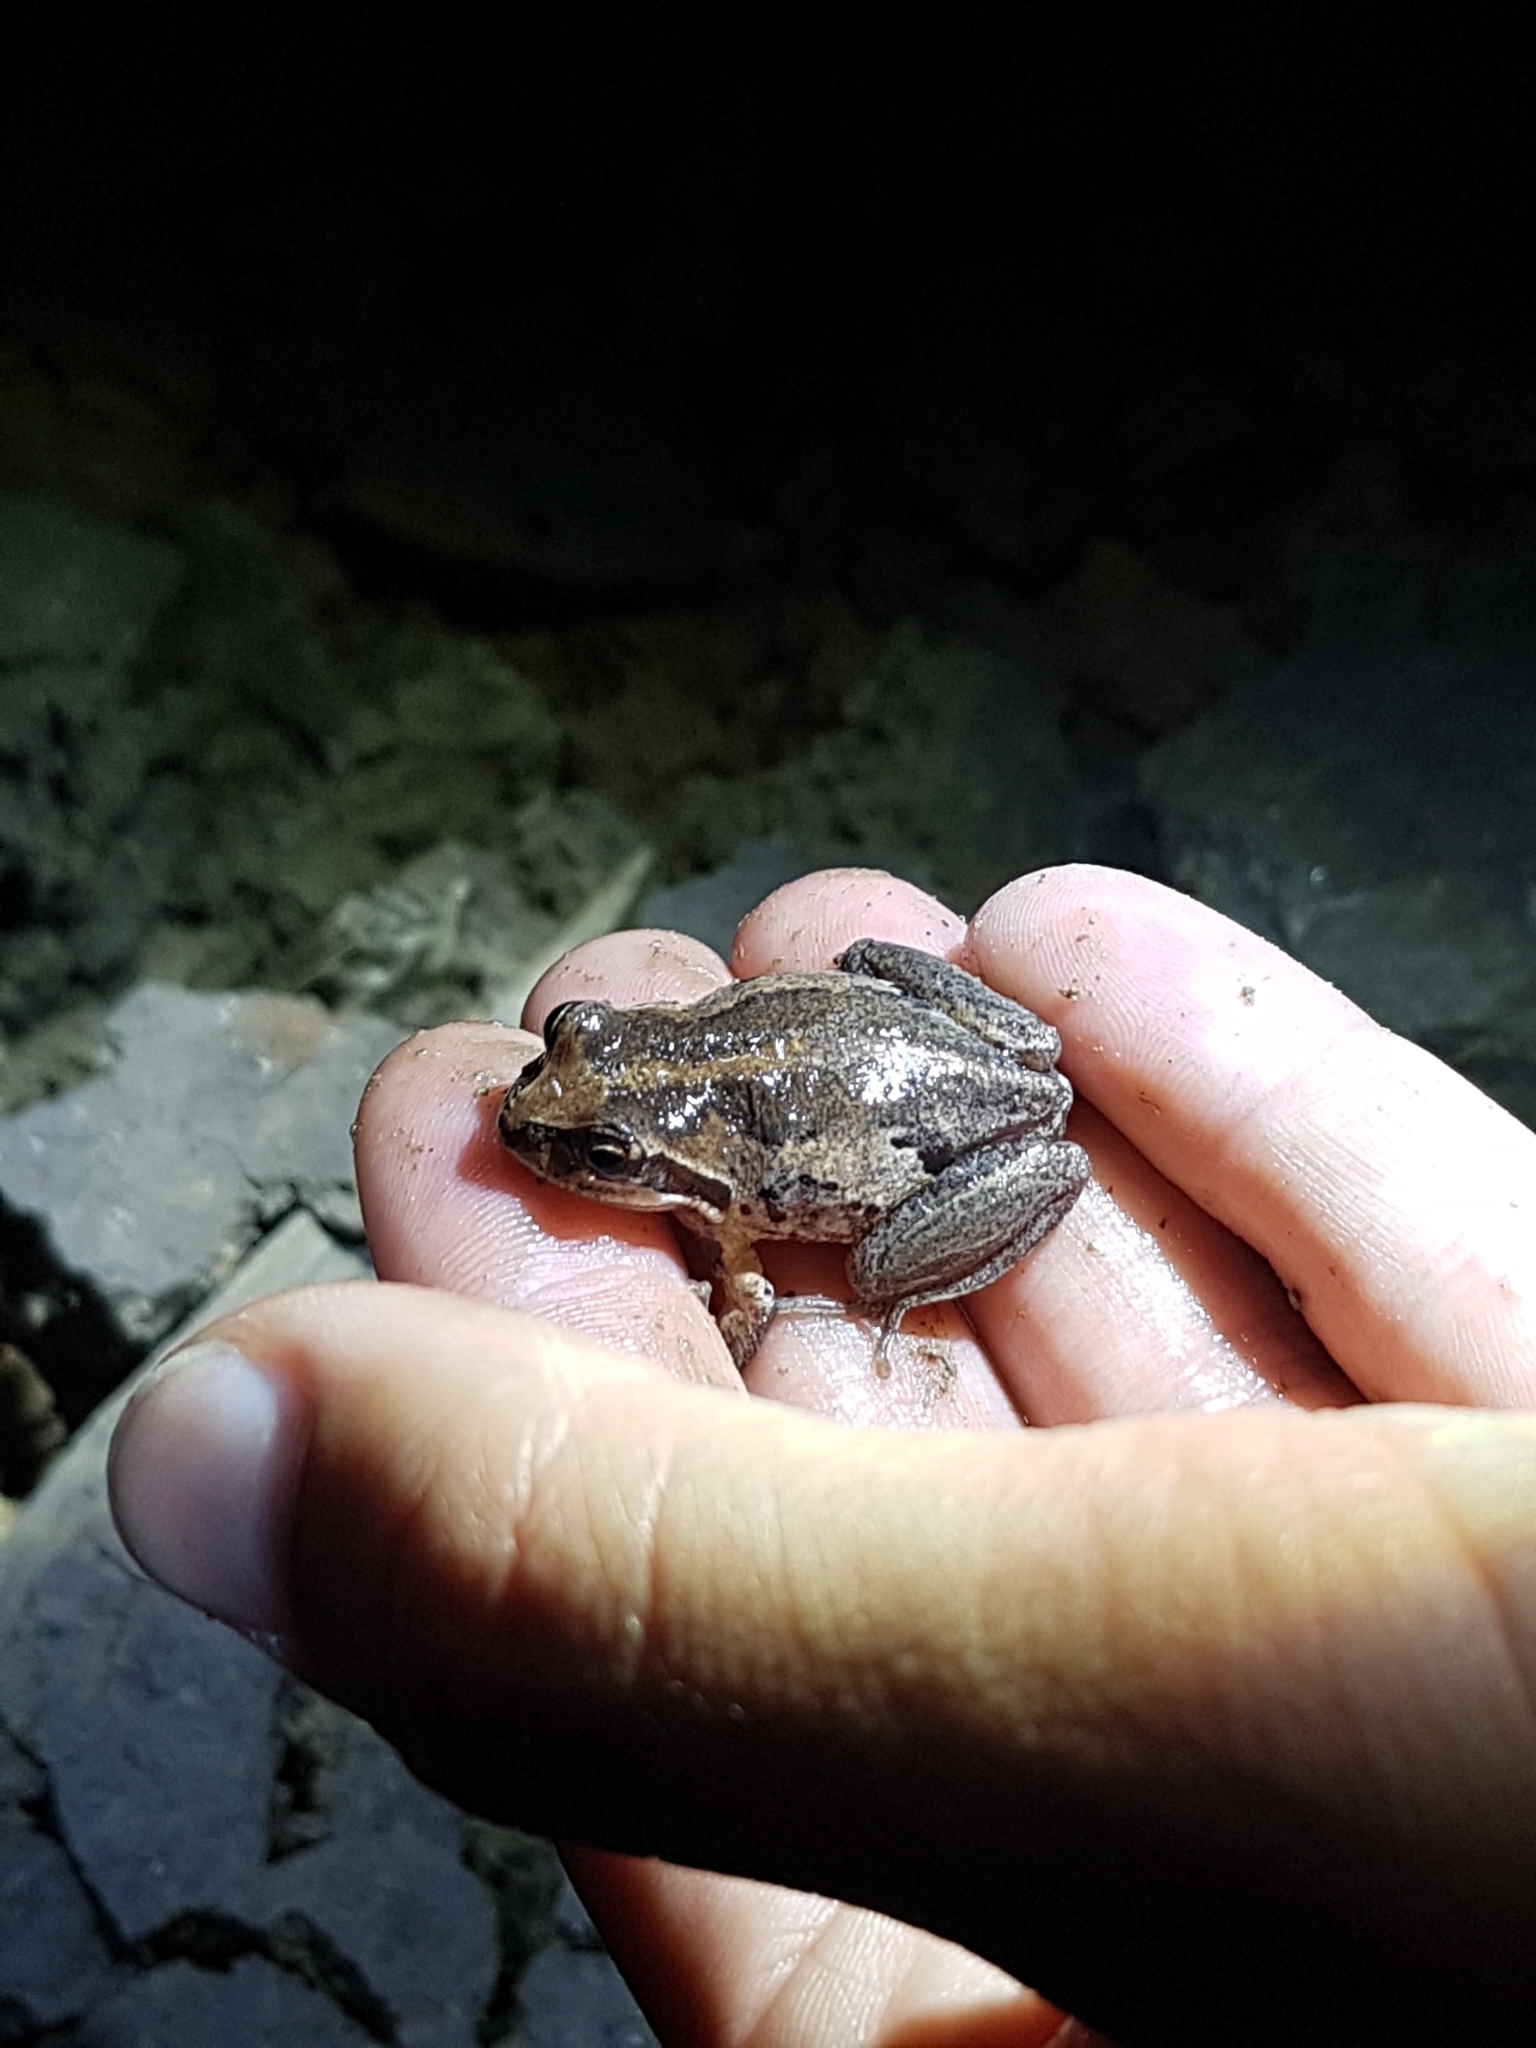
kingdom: Animalia
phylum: Chordata
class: Amphibia
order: Anura
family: Pelodryadidae
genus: Litoria
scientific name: Litoria verreauxii
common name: Alpine tree frog
